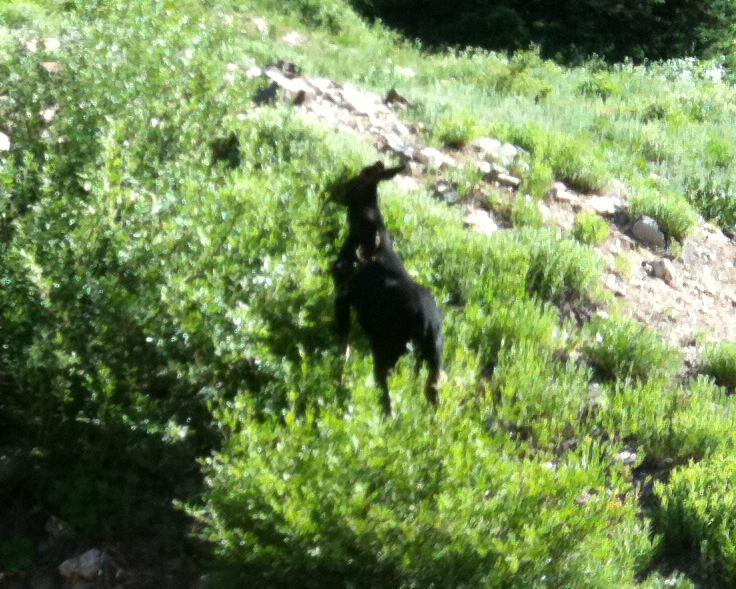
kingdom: Animalia
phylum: Chordata
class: Mammalia
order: Artiodactyla
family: Cervidae
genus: Alces
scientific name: Alces alces
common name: Moose
